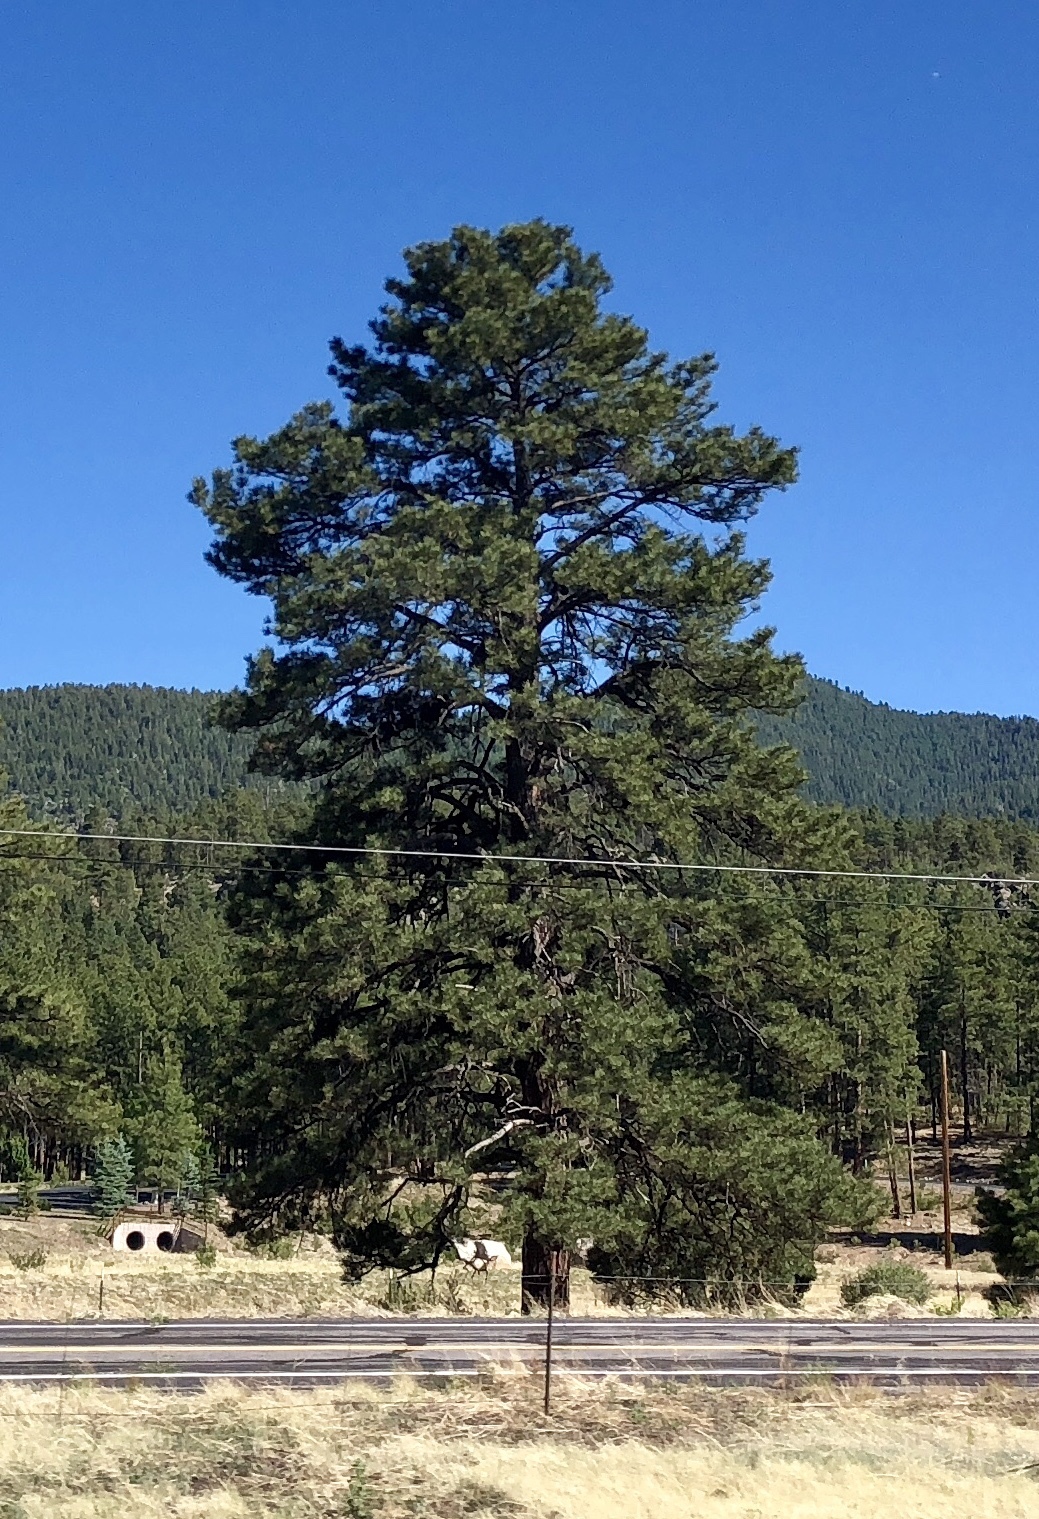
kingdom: Plantae
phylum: Tracheophyta
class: Pinopsida
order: Pinales
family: Pinaceae
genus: Pinus
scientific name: Pinus ponderosa
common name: Western yellow-pine
